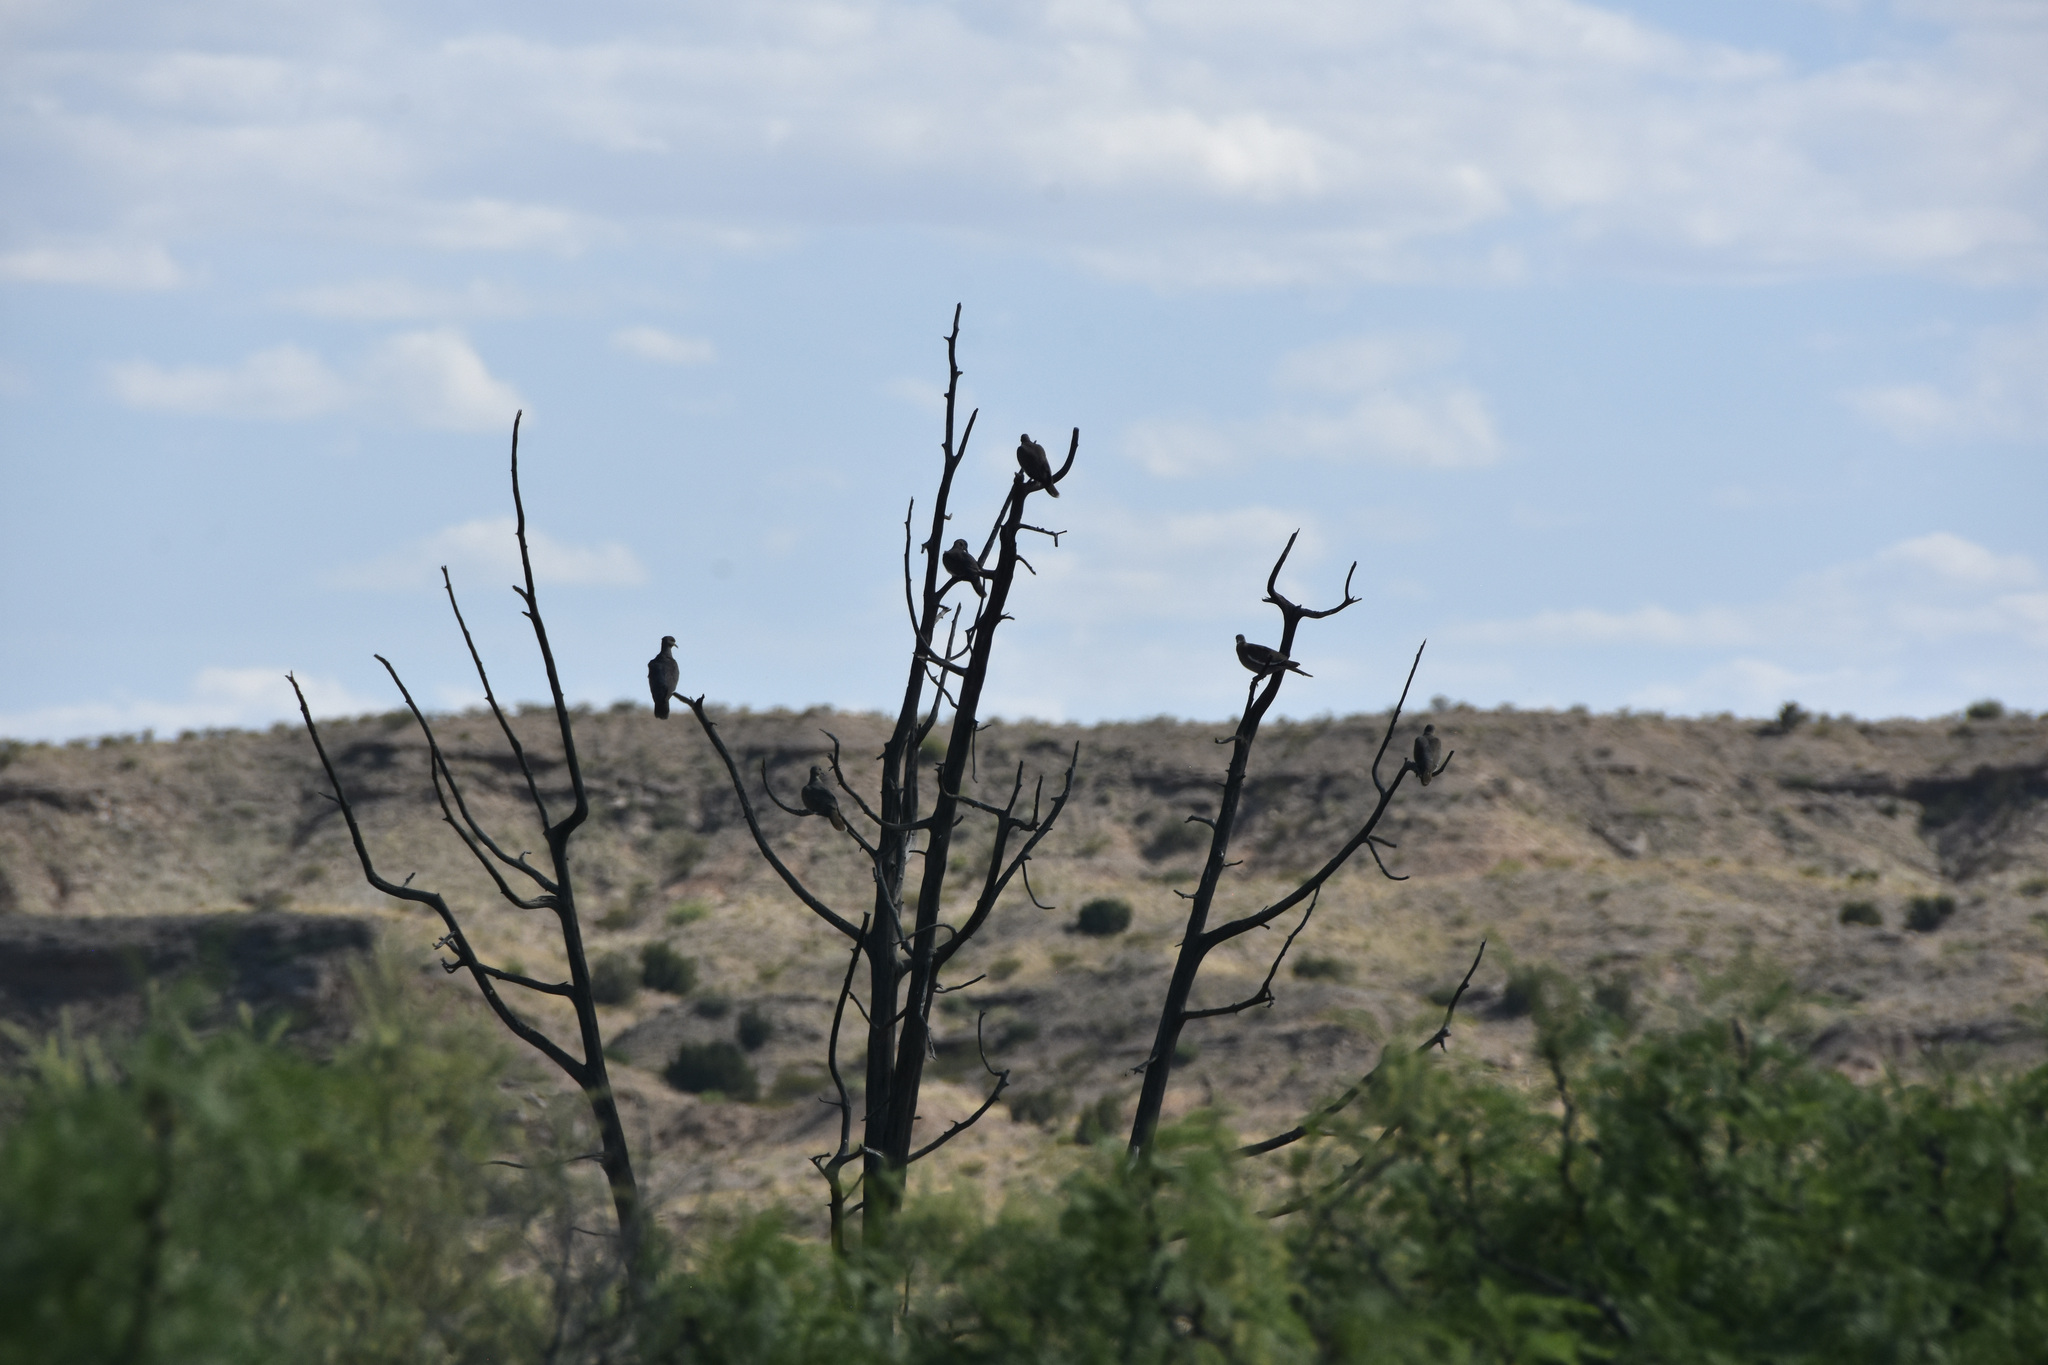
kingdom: Animalia
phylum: Chordata
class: Aves
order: Columbiformes
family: Columbidae
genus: Zenaida
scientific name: Zenaida asiatica
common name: White-winged dove
